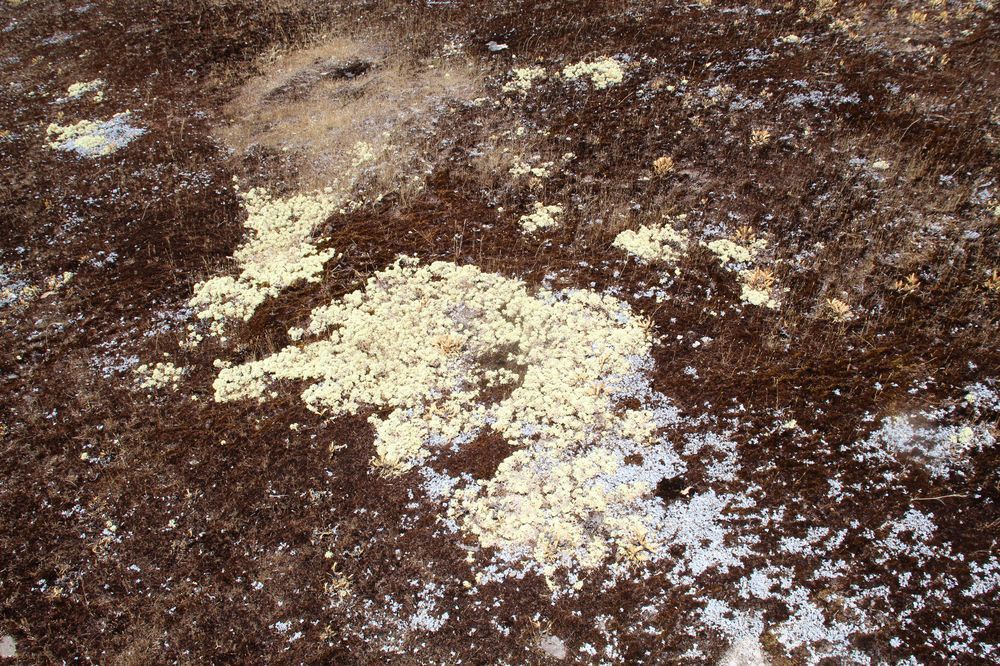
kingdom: Fungi
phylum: Ascomycota
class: Lecanoromycetes
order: Lecanorales
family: Cladoniaceae
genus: Pulchrocladia
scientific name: Pulchrocladia ferdinandii
